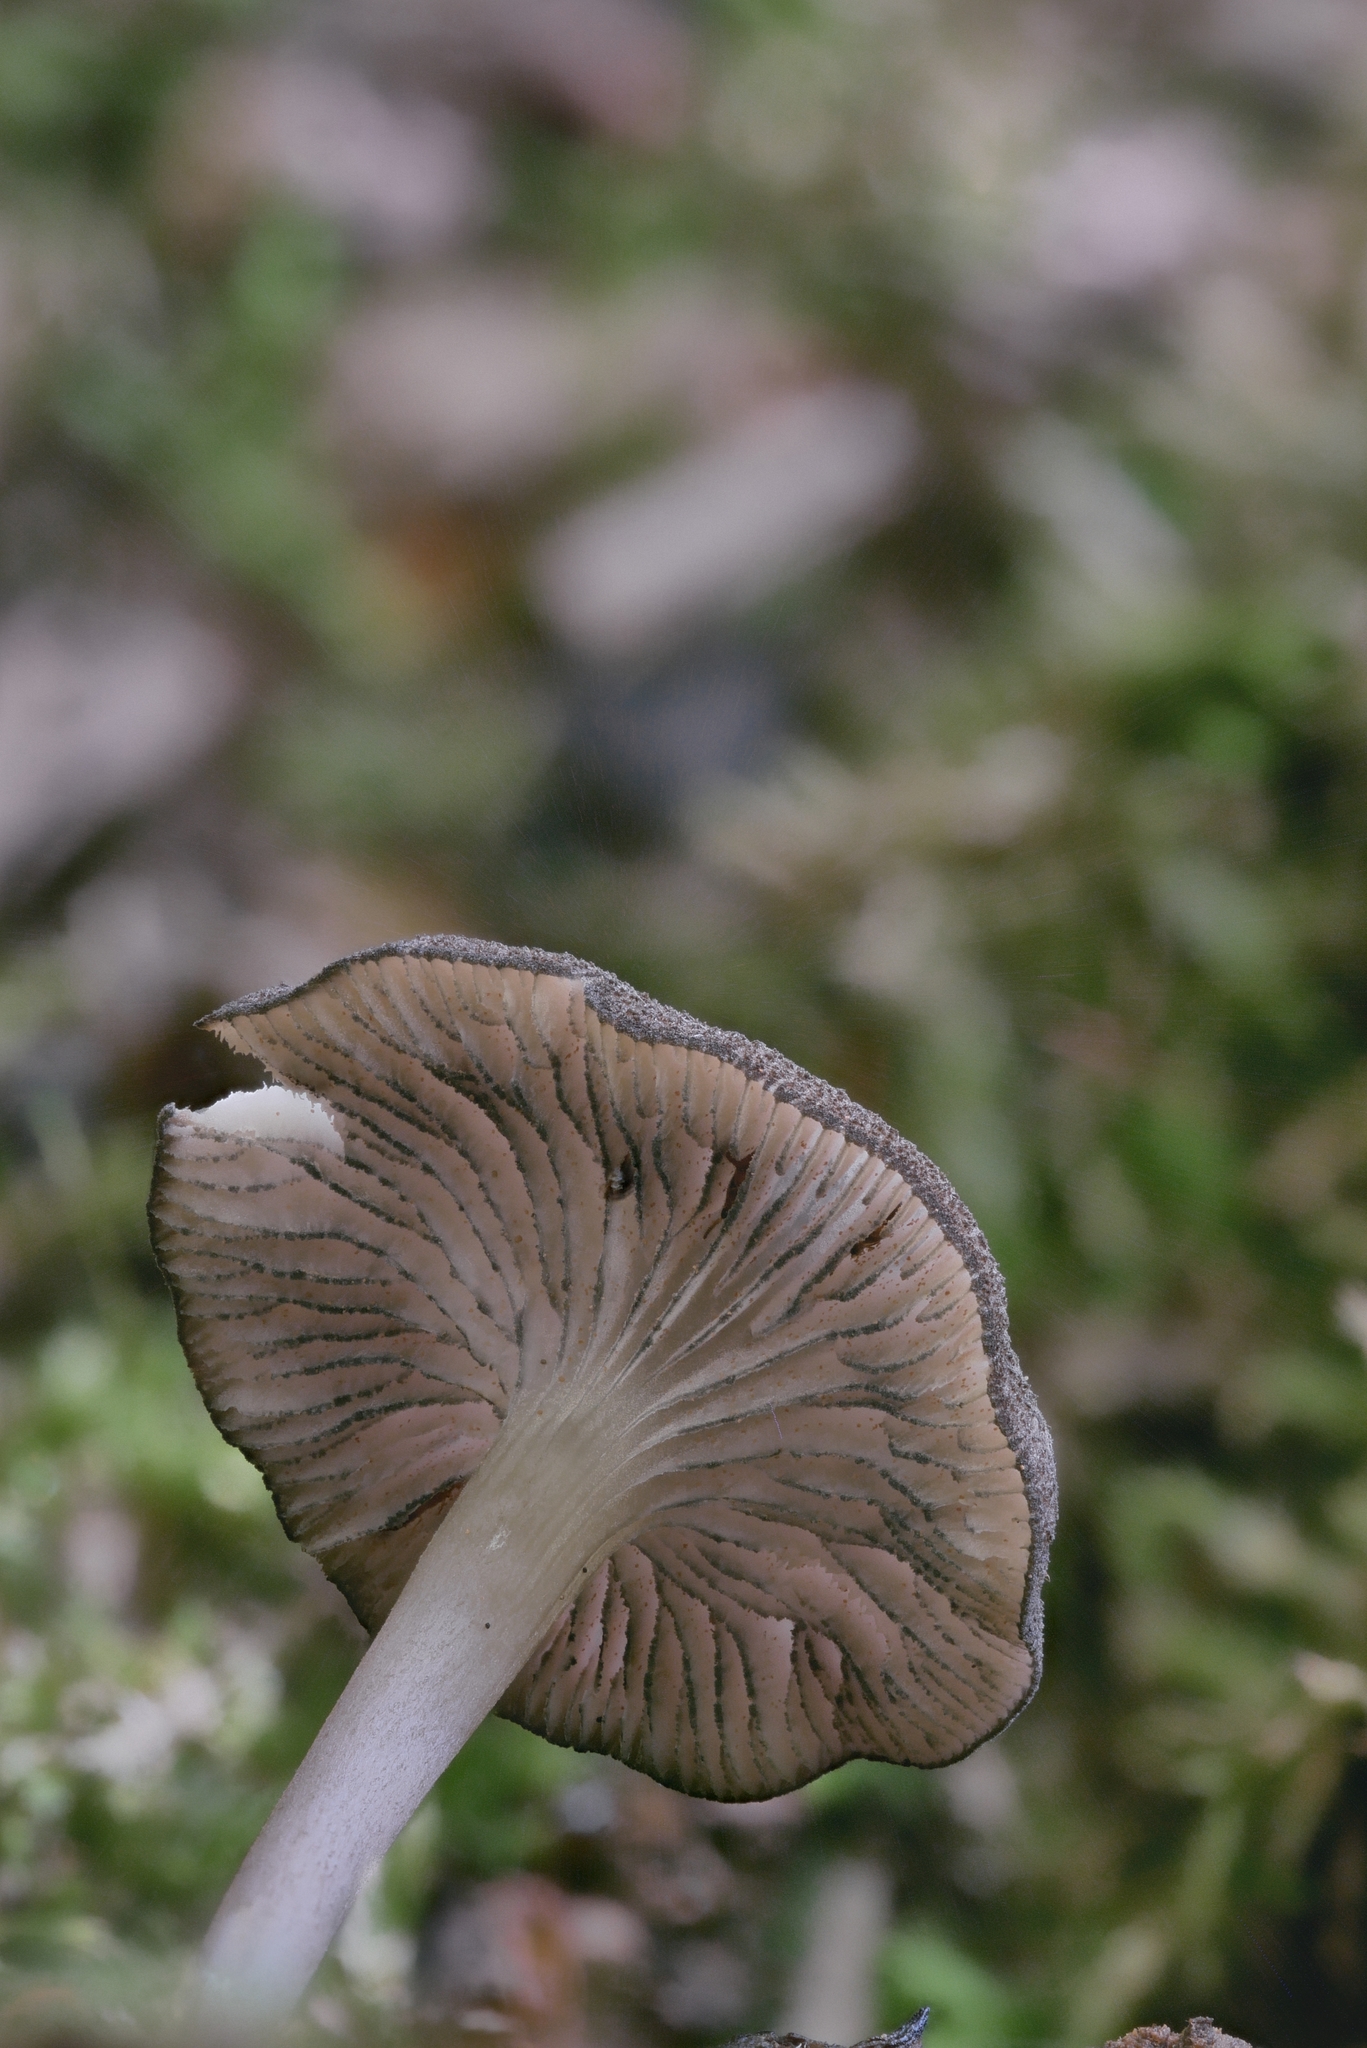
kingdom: Fungi
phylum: Basidiomycota
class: Agaricomycetes
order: Agaricales
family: Entolomataceae
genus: Entoloma
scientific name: Entoloma serrulatum
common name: Blue edge pinkgill
